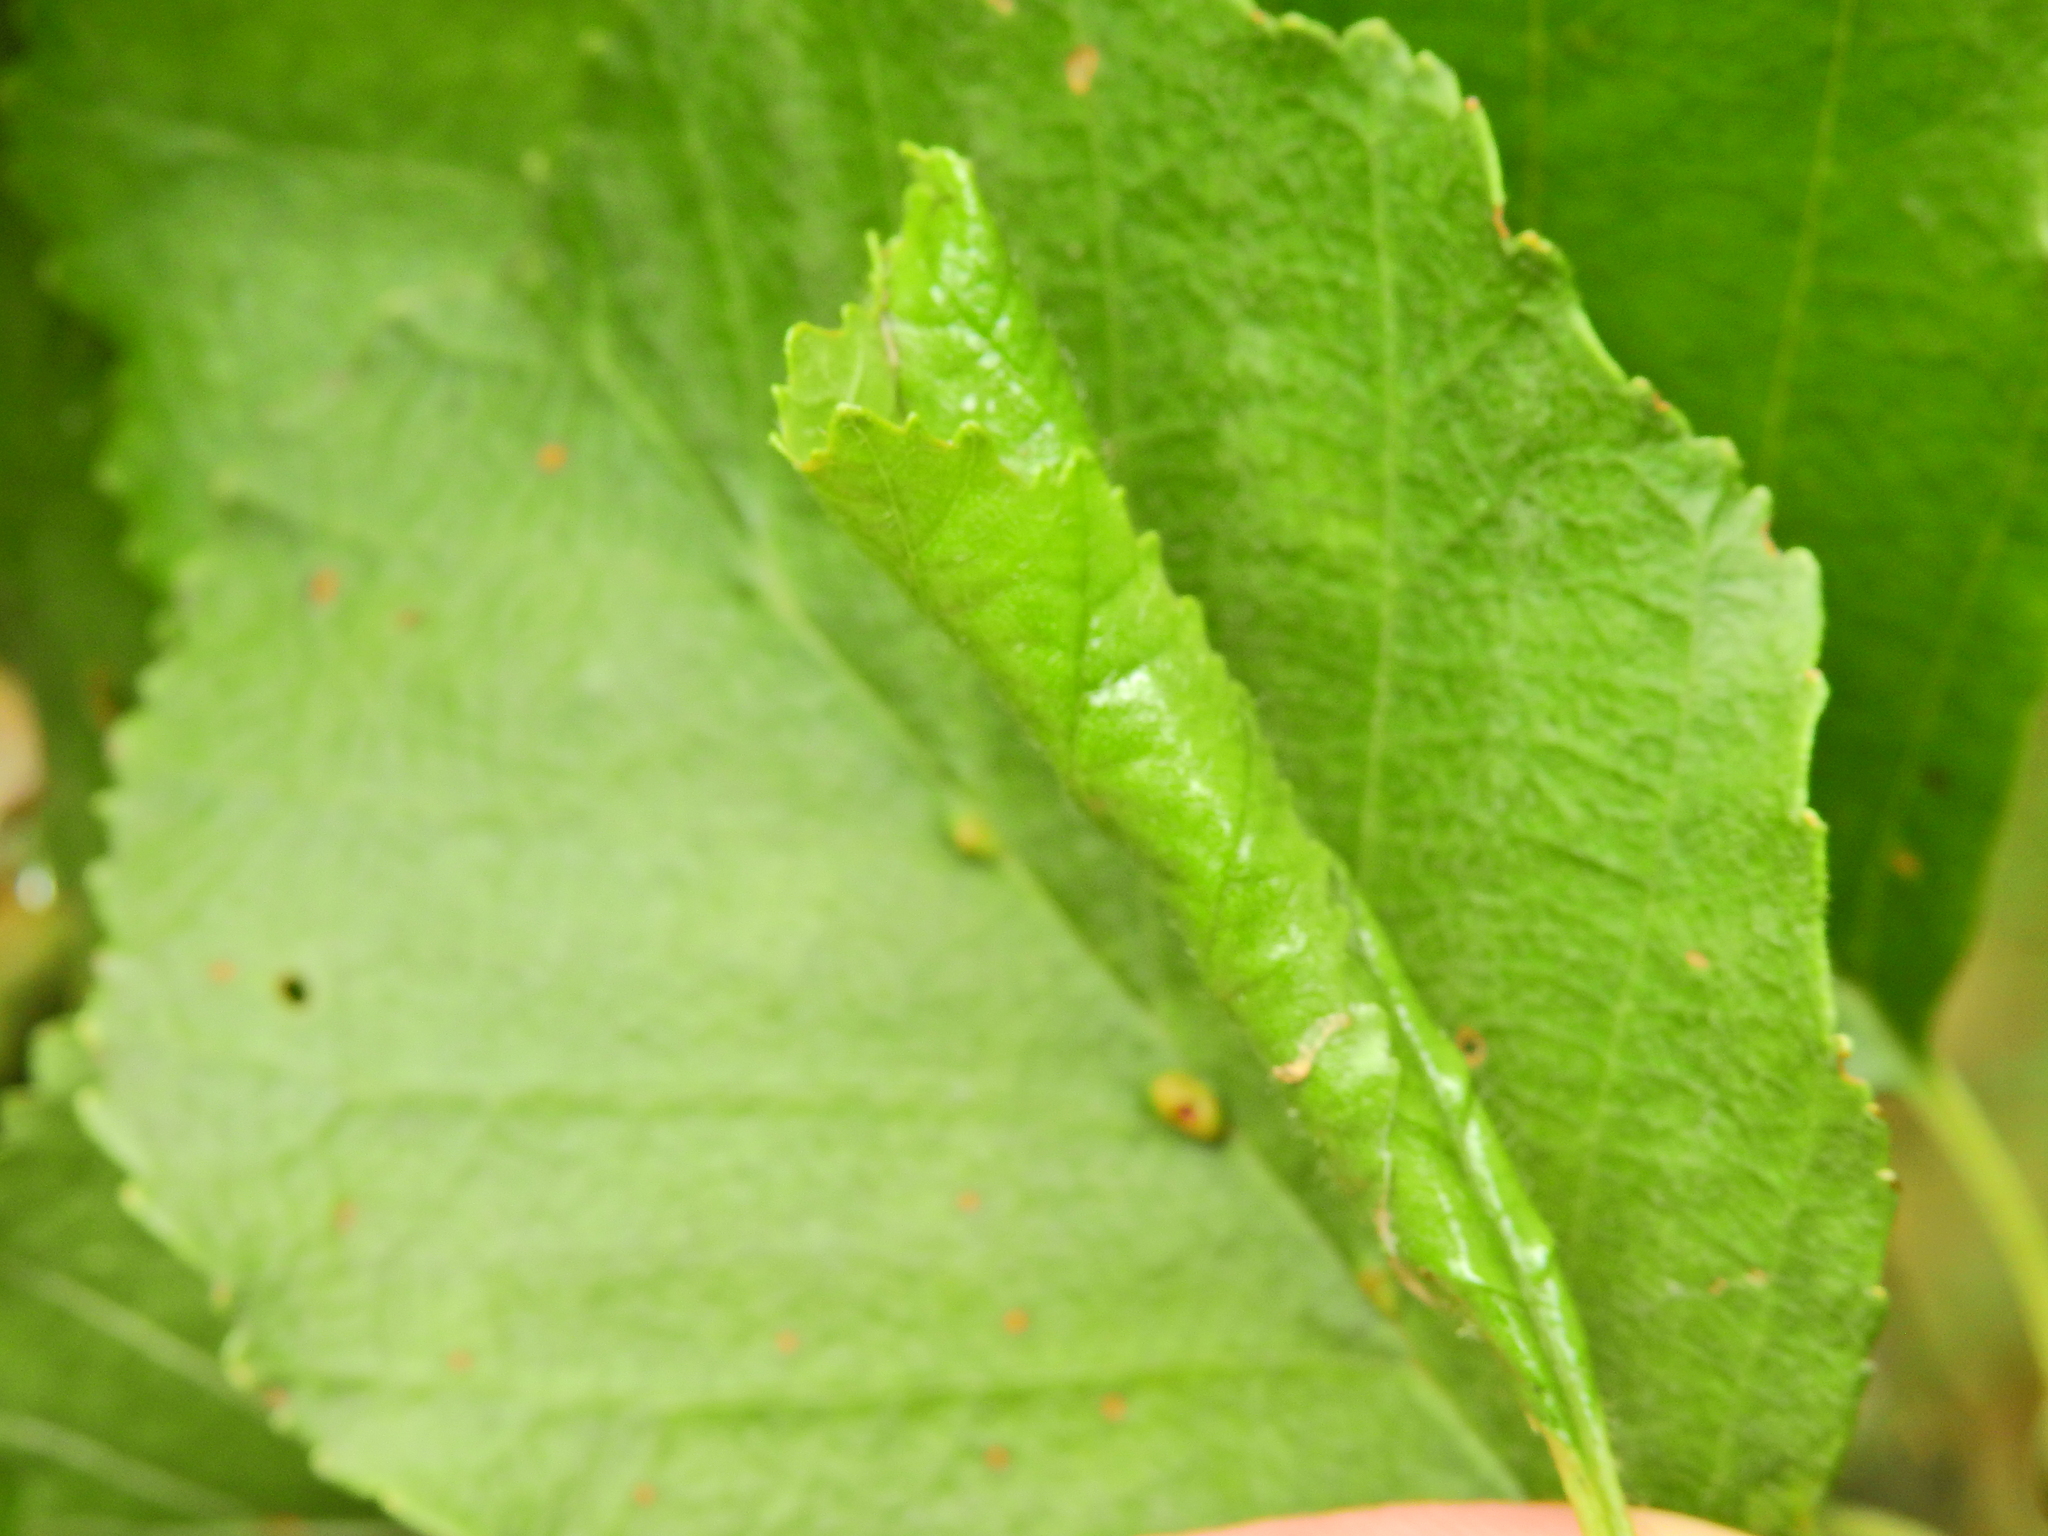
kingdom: Animalia
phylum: Arthropoda
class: Insecta
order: Coleoptera
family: Attelabidae
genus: Apoderus
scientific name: Apoderus coryli
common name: Hazel leaf roller
